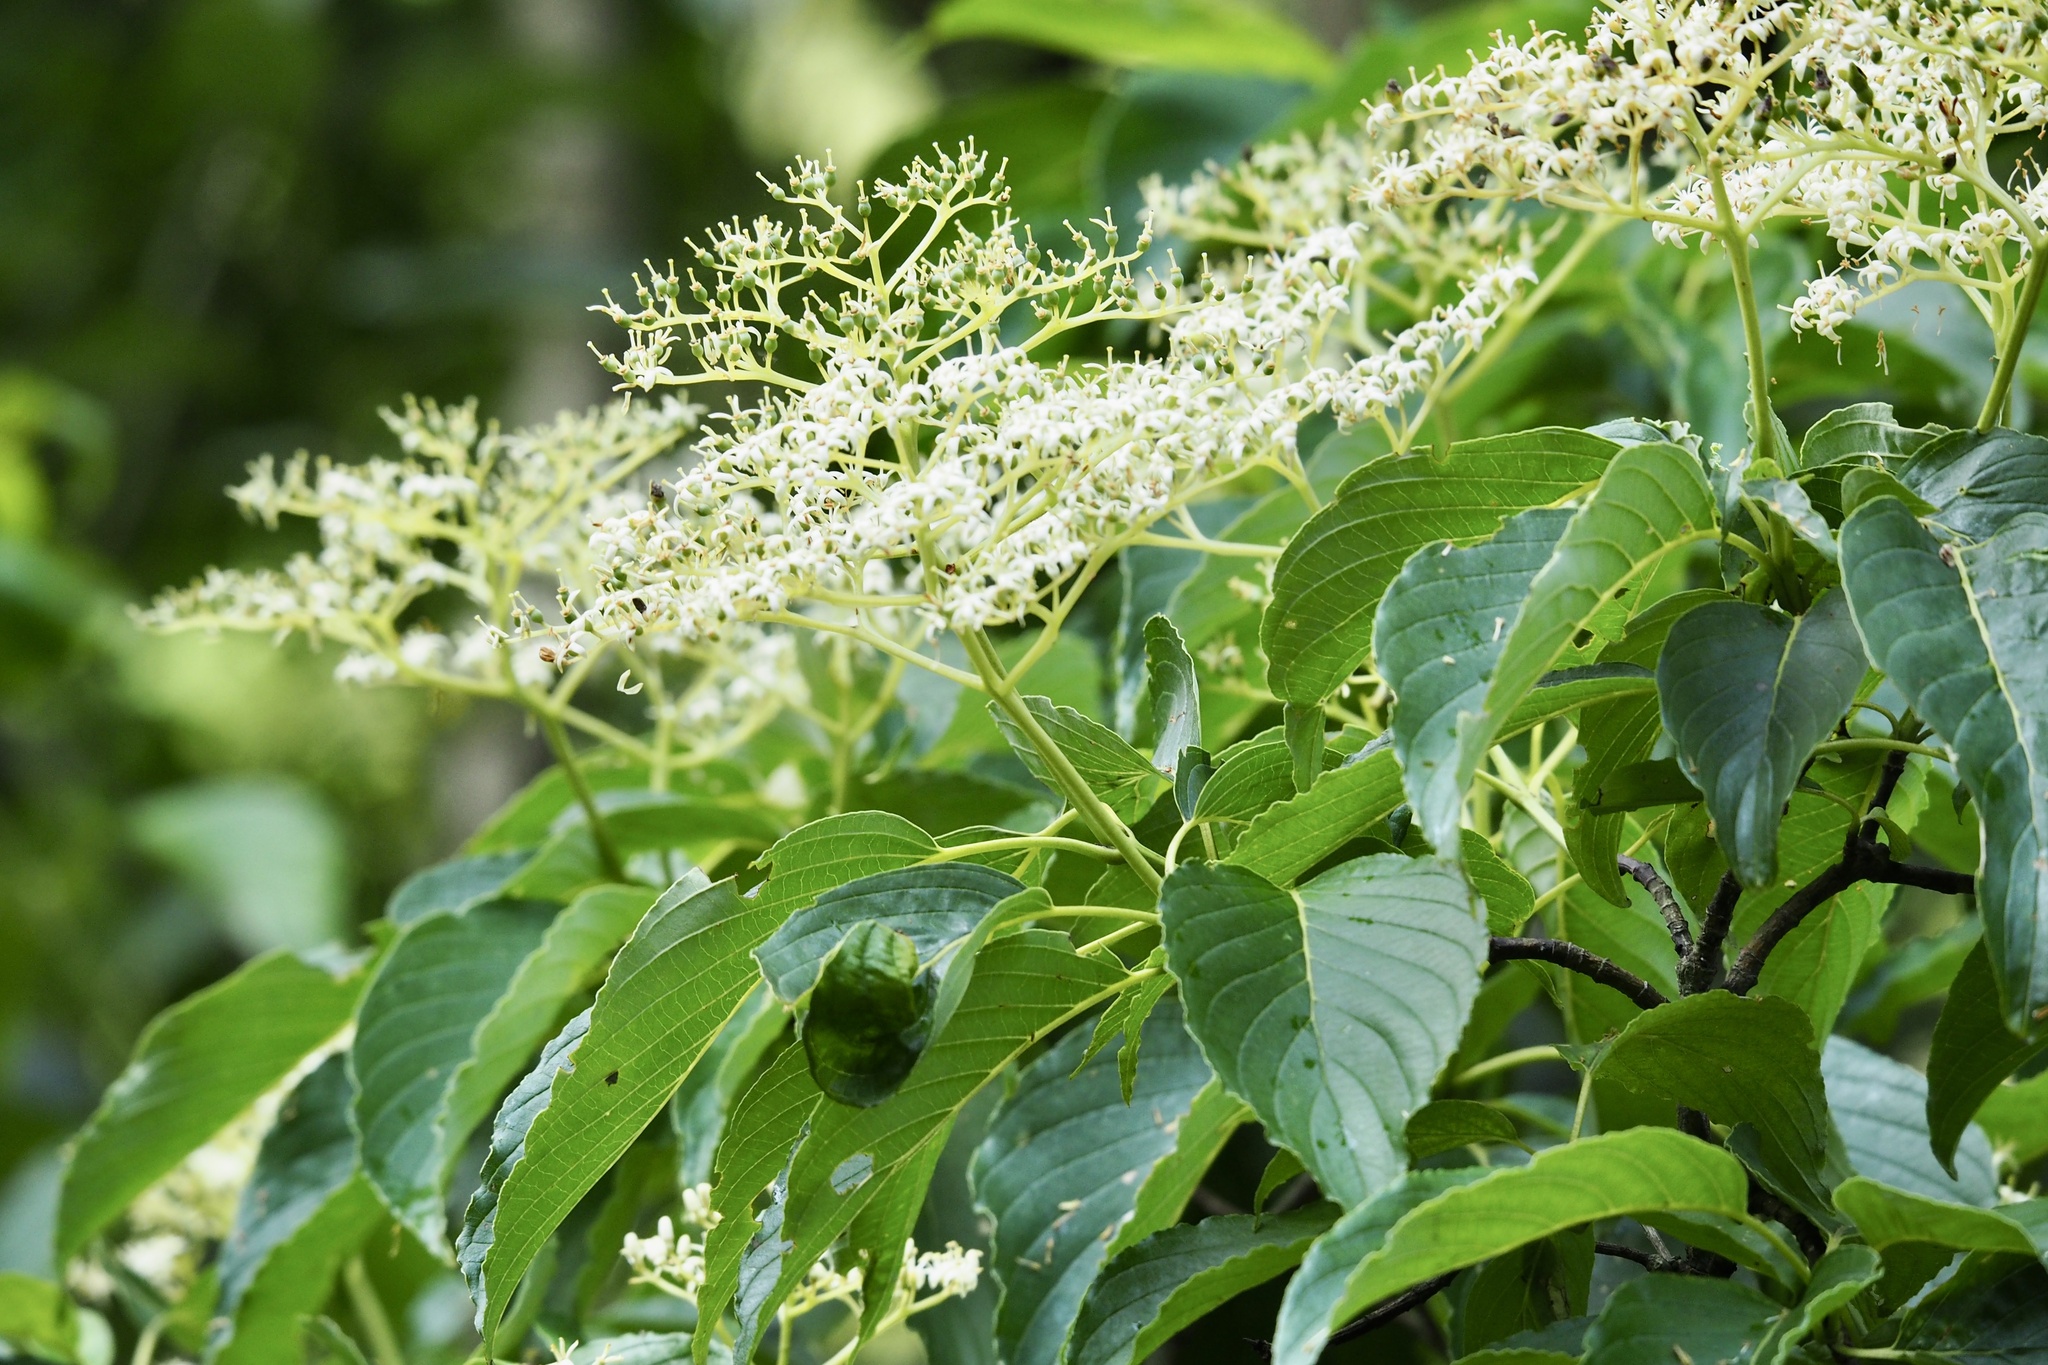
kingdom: Plantae
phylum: Tracheophyta
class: Magnoliopsida
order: Cornales
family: Cornaceae
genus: Cornus
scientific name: Cornus macrophylla
